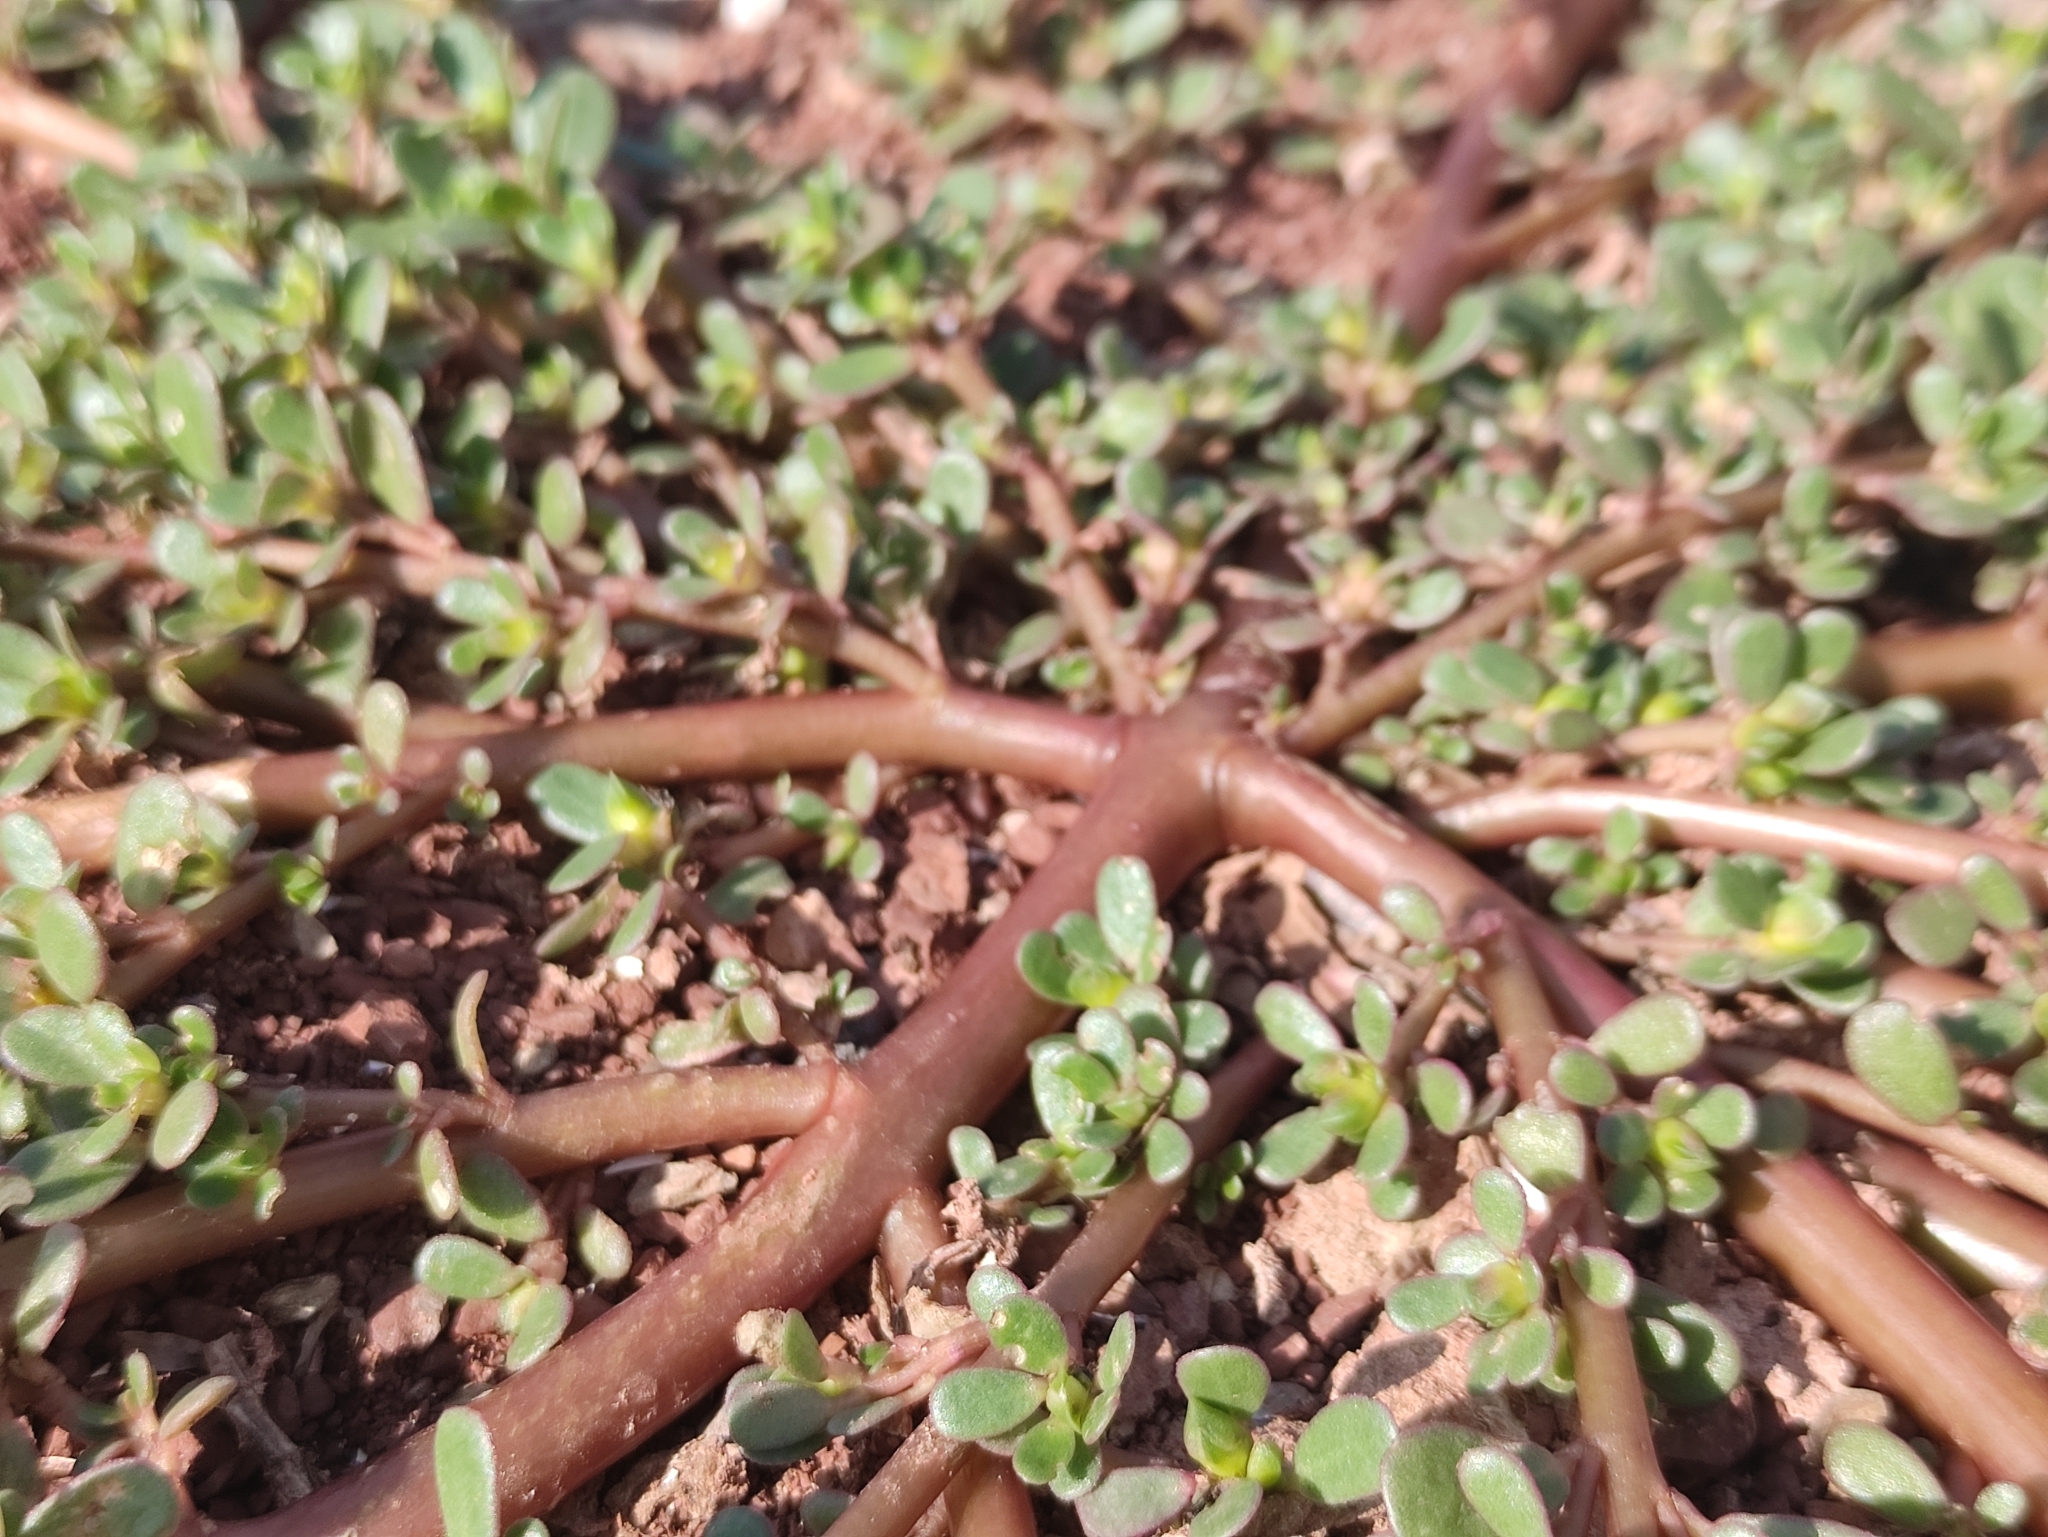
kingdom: Plantae
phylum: Tracheophyta
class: Magnoliopsida
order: Caryophyllales
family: Portulacaceae
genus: Portulaca
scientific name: Portulaca oleracea
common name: Common purslane
